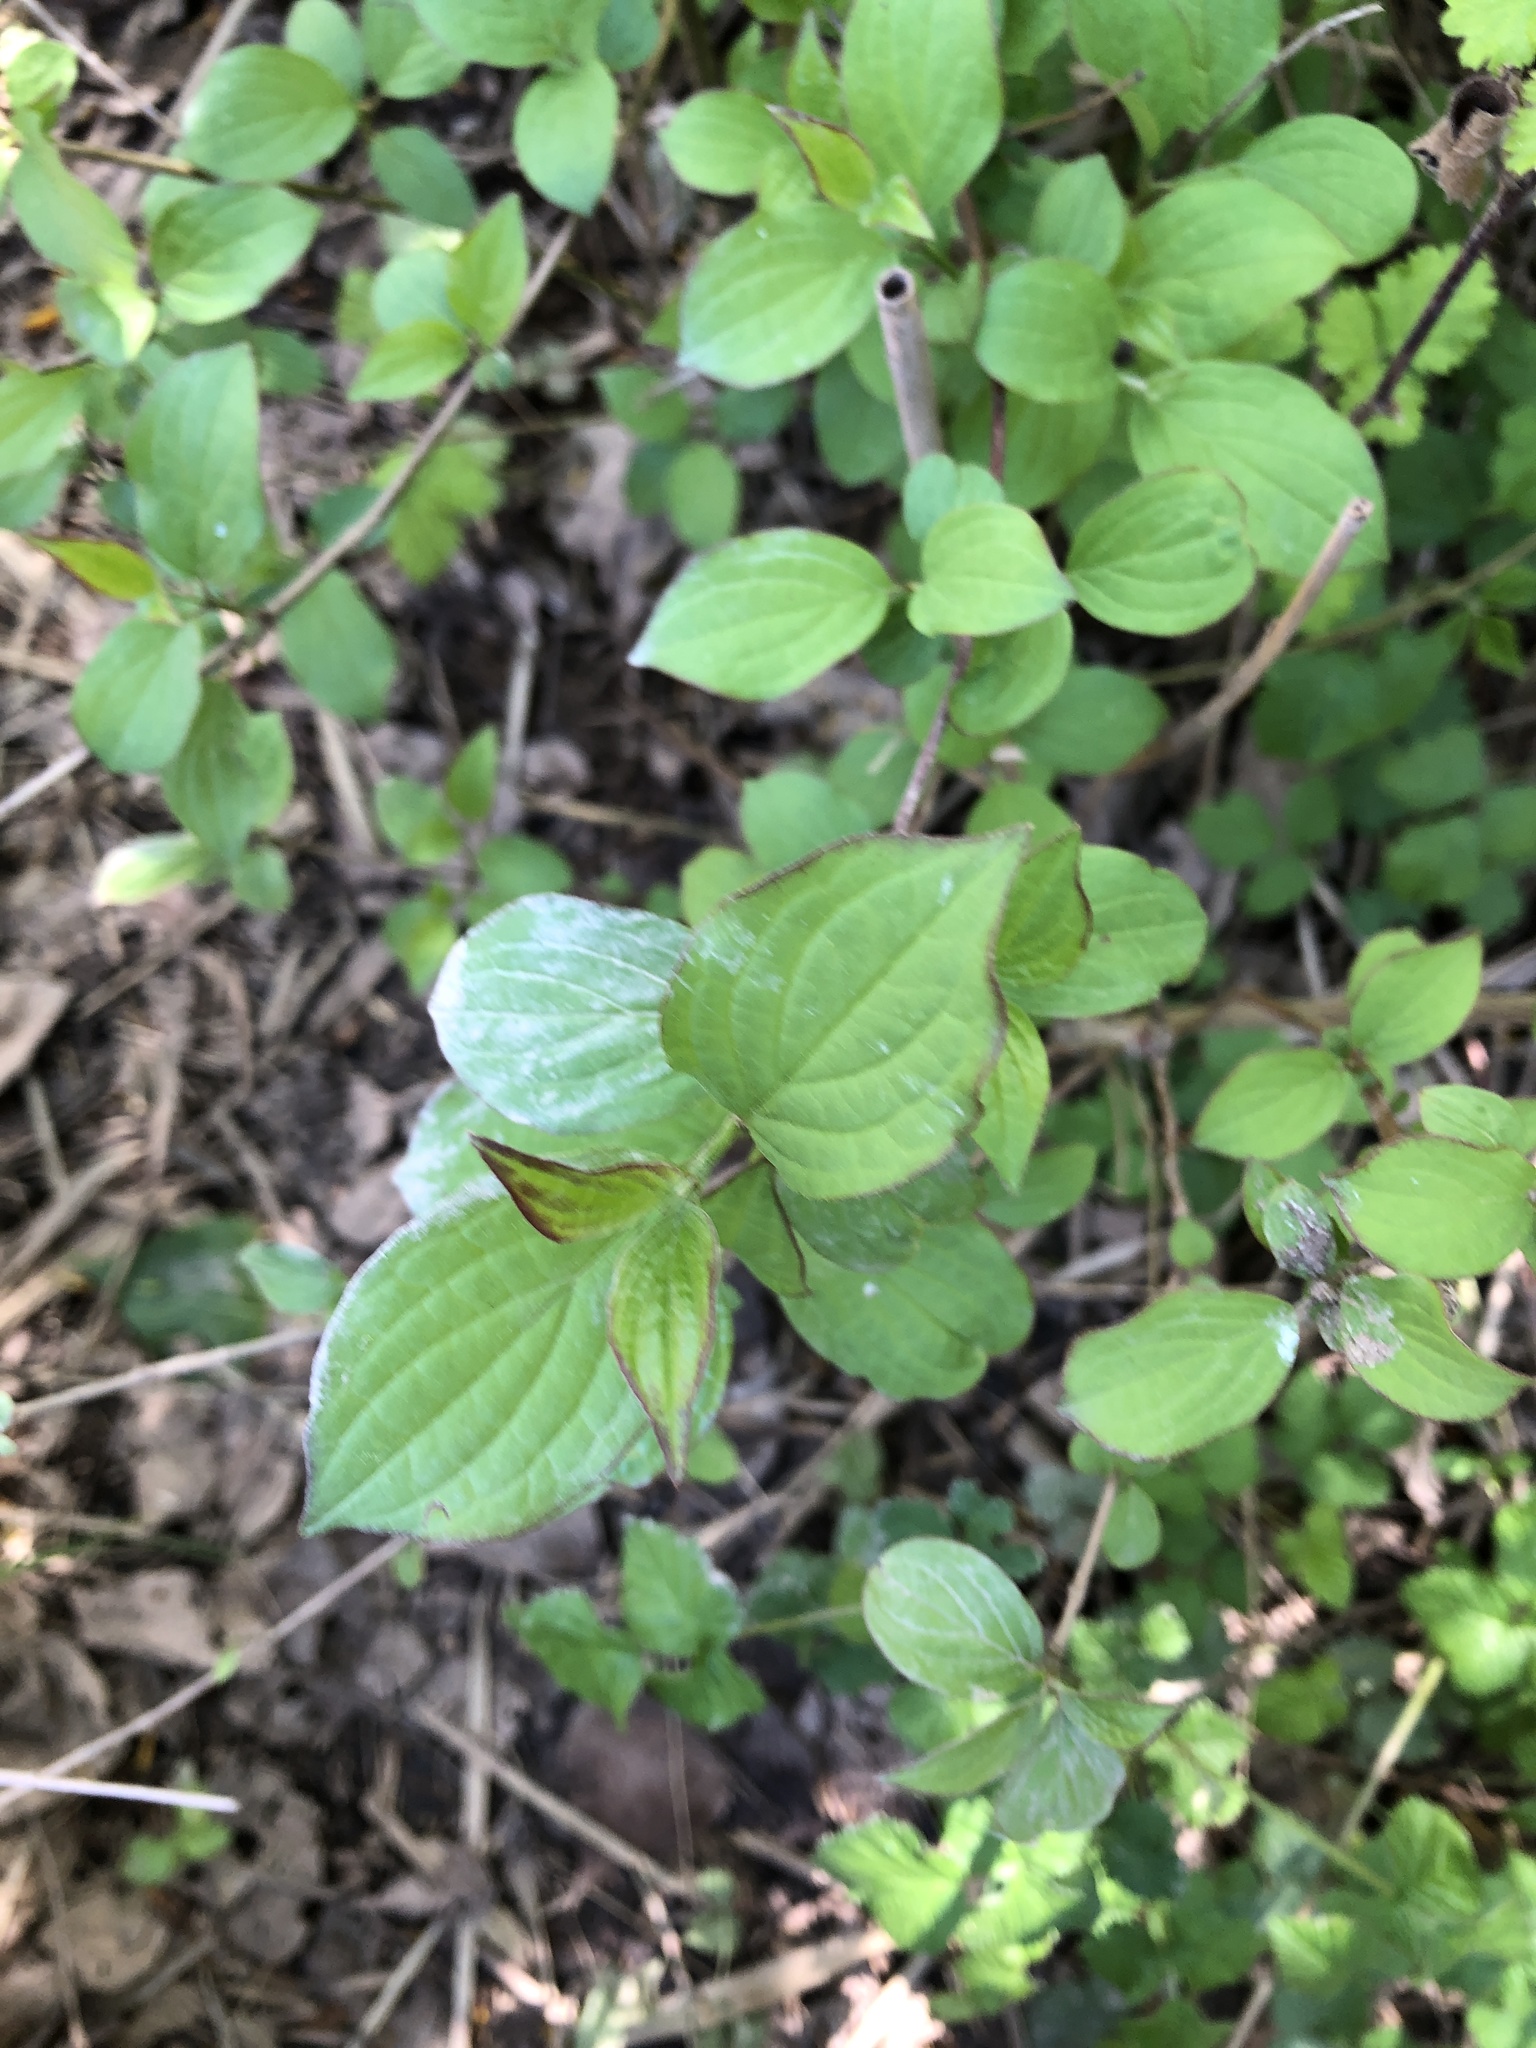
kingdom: Plantae
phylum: Tracheophyta
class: Magnoliopsida
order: Cornales
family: Cornaceae
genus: Cornus
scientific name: Cornus sanguinea
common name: Dogwood
